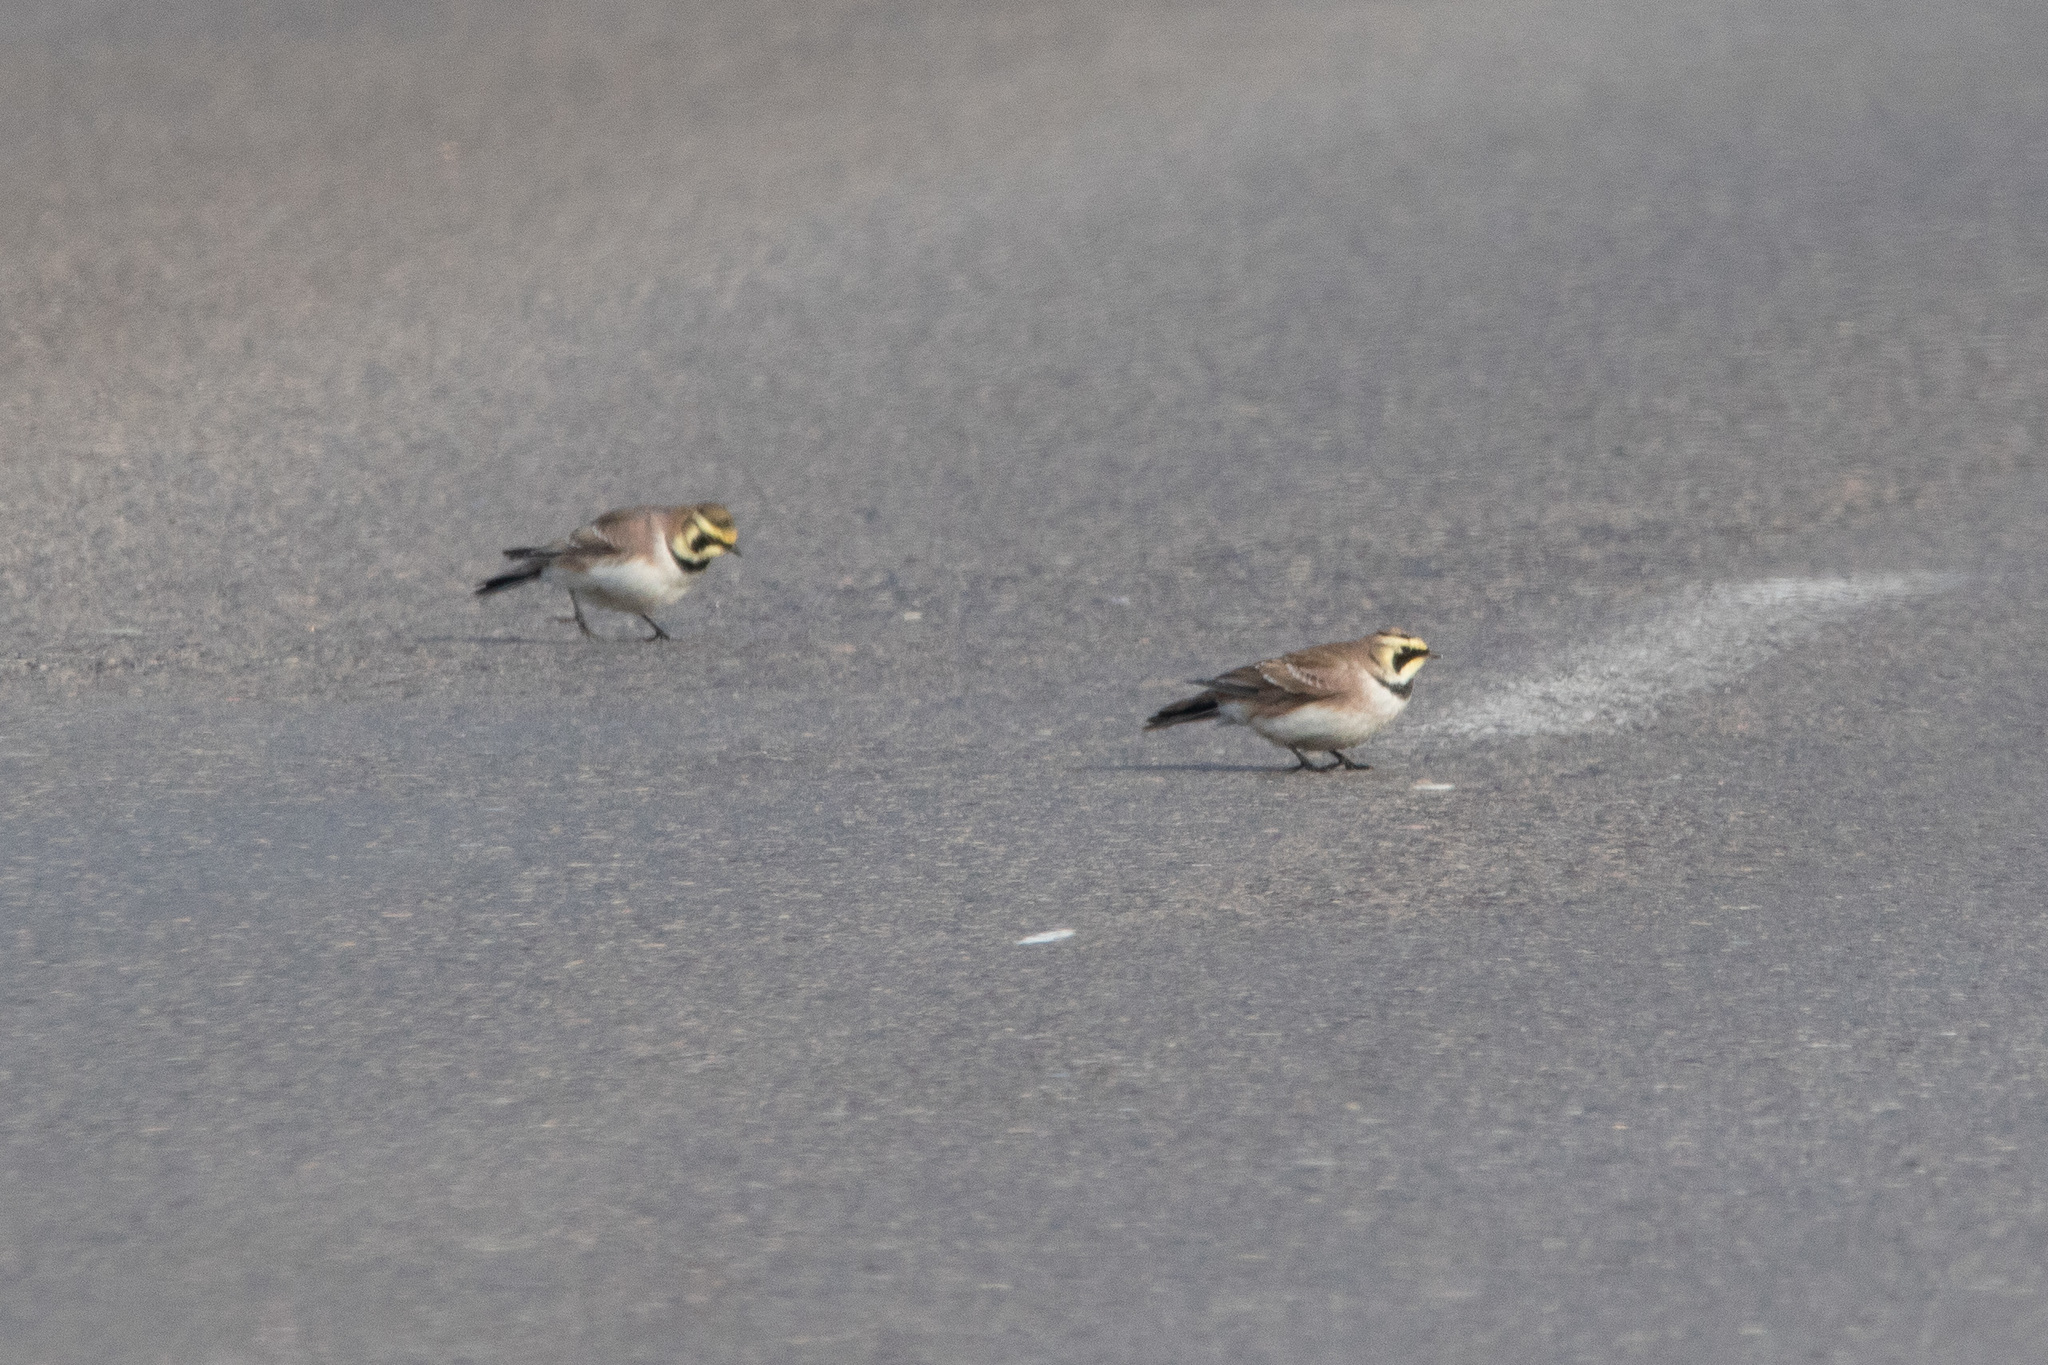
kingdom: Animalia
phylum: Chordata
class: Aves
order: Passeriformes
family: Alaudidae
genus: Eremophila
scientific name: Eremophila alpestris
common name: Horned lark
